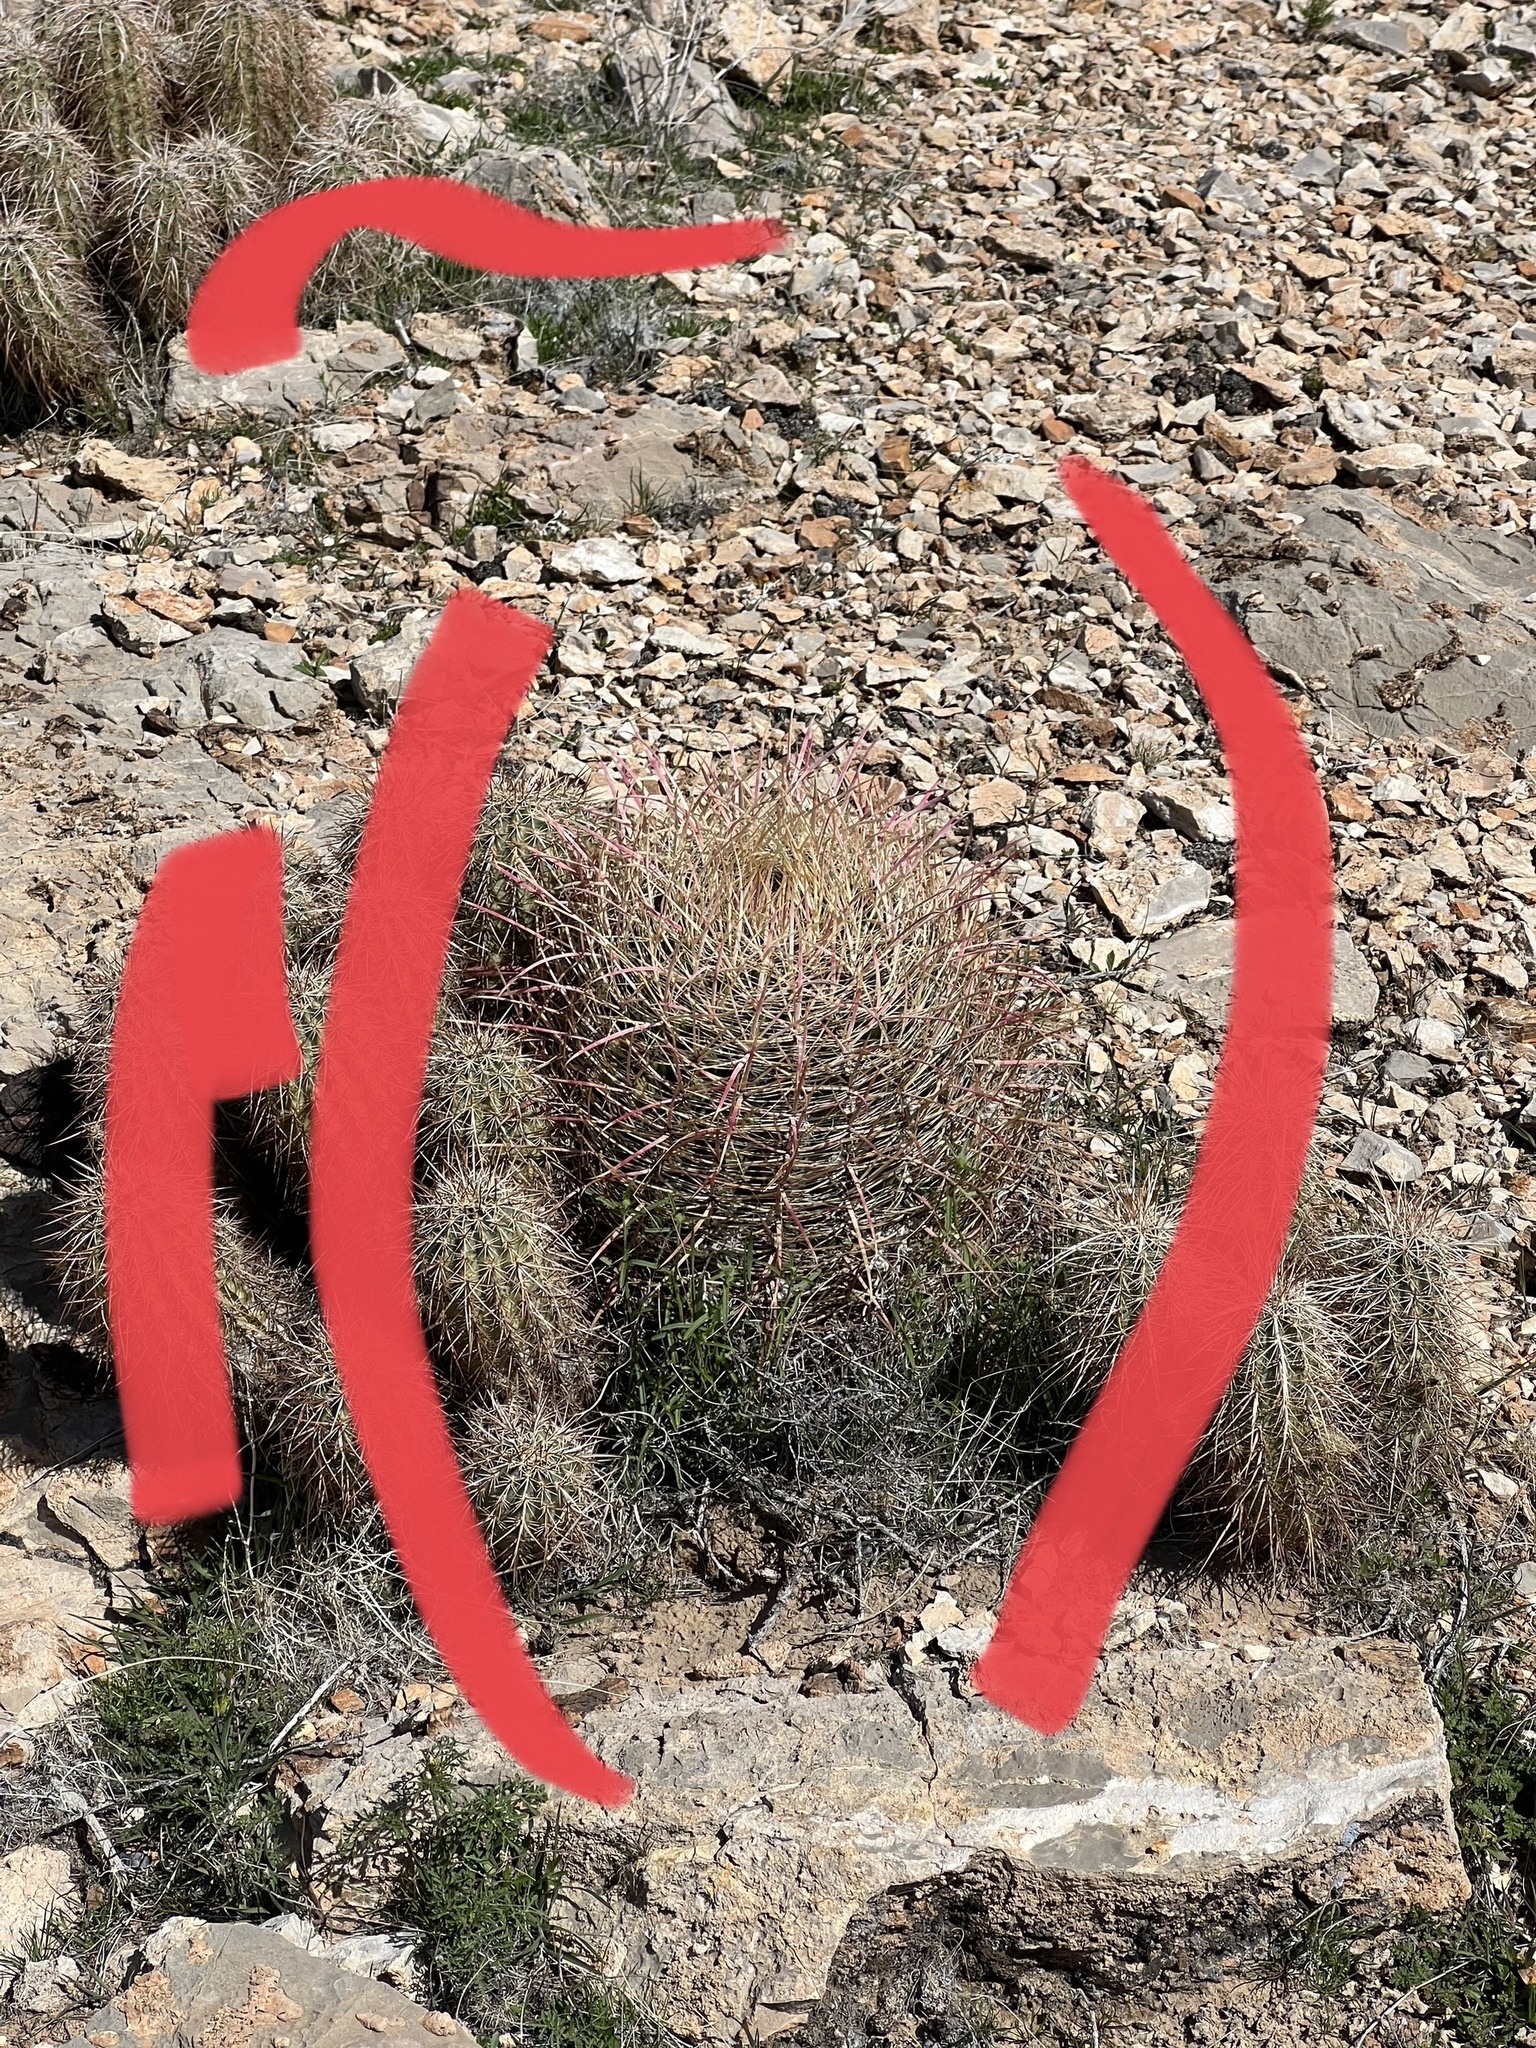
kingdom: Plantae
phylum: Tracheophyta
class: Magnoliopsida
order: Caryophyllales
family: Cactaceae
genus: Ferocactus
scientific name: Ferocactus cylindraceus
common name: California barrel cactus
